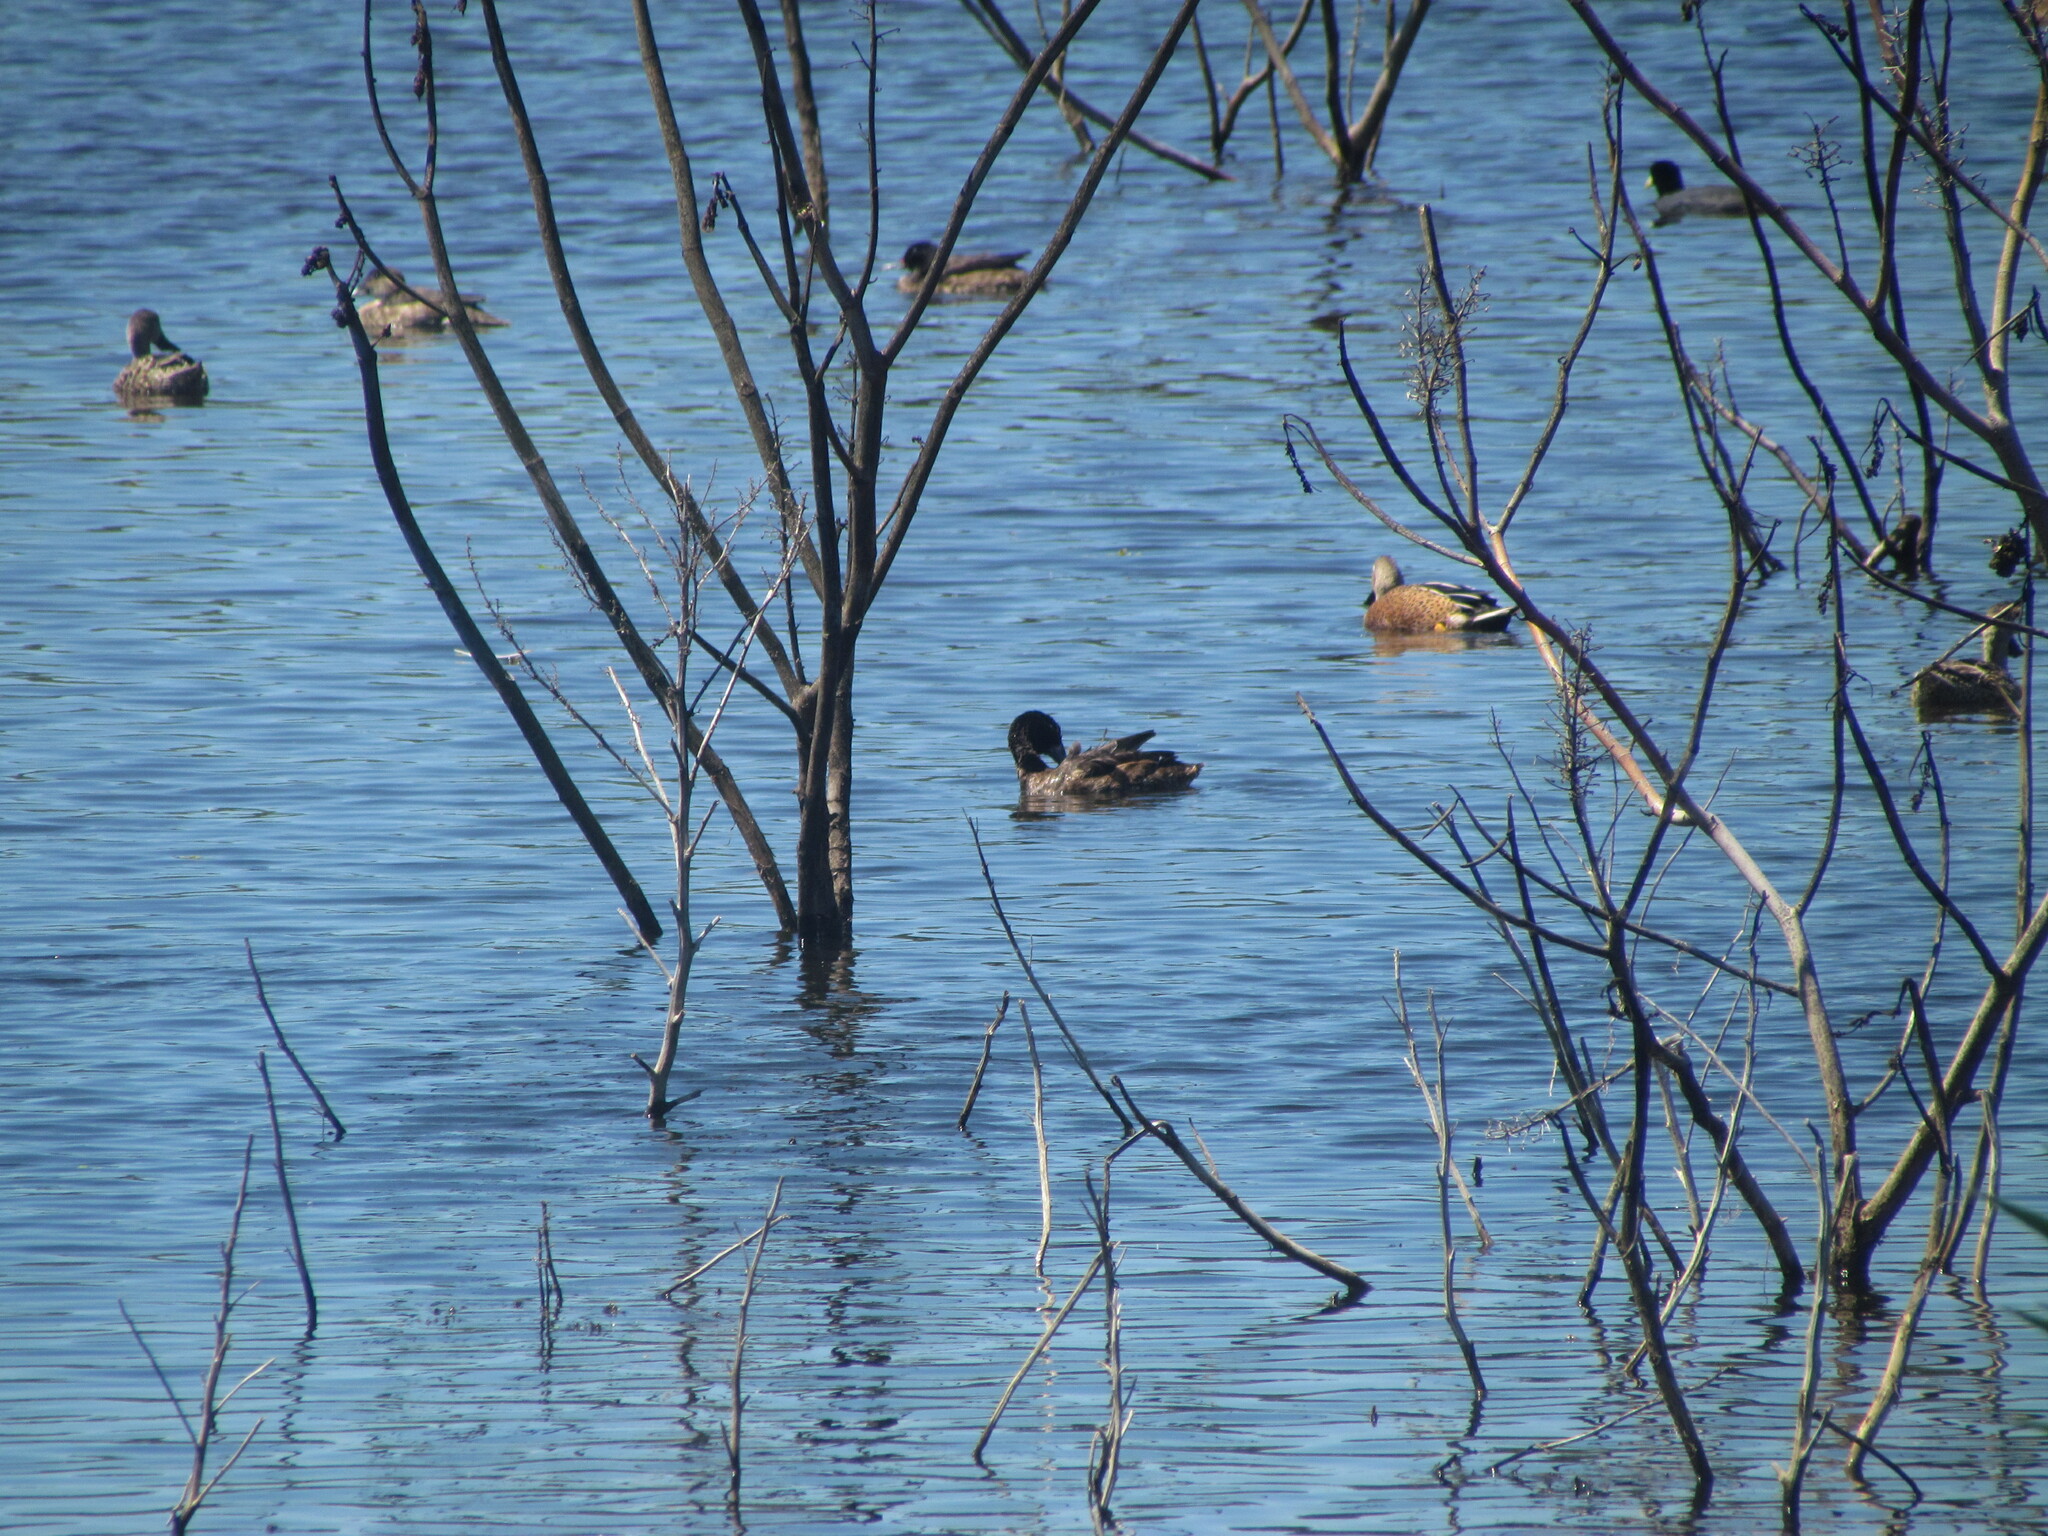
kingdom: Animalia
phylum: Chordata
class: Aves
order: Anseriformes
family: Anatidae
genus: Heteronetta
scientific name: Heteronetta atricapilla
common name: Black-headed duck
